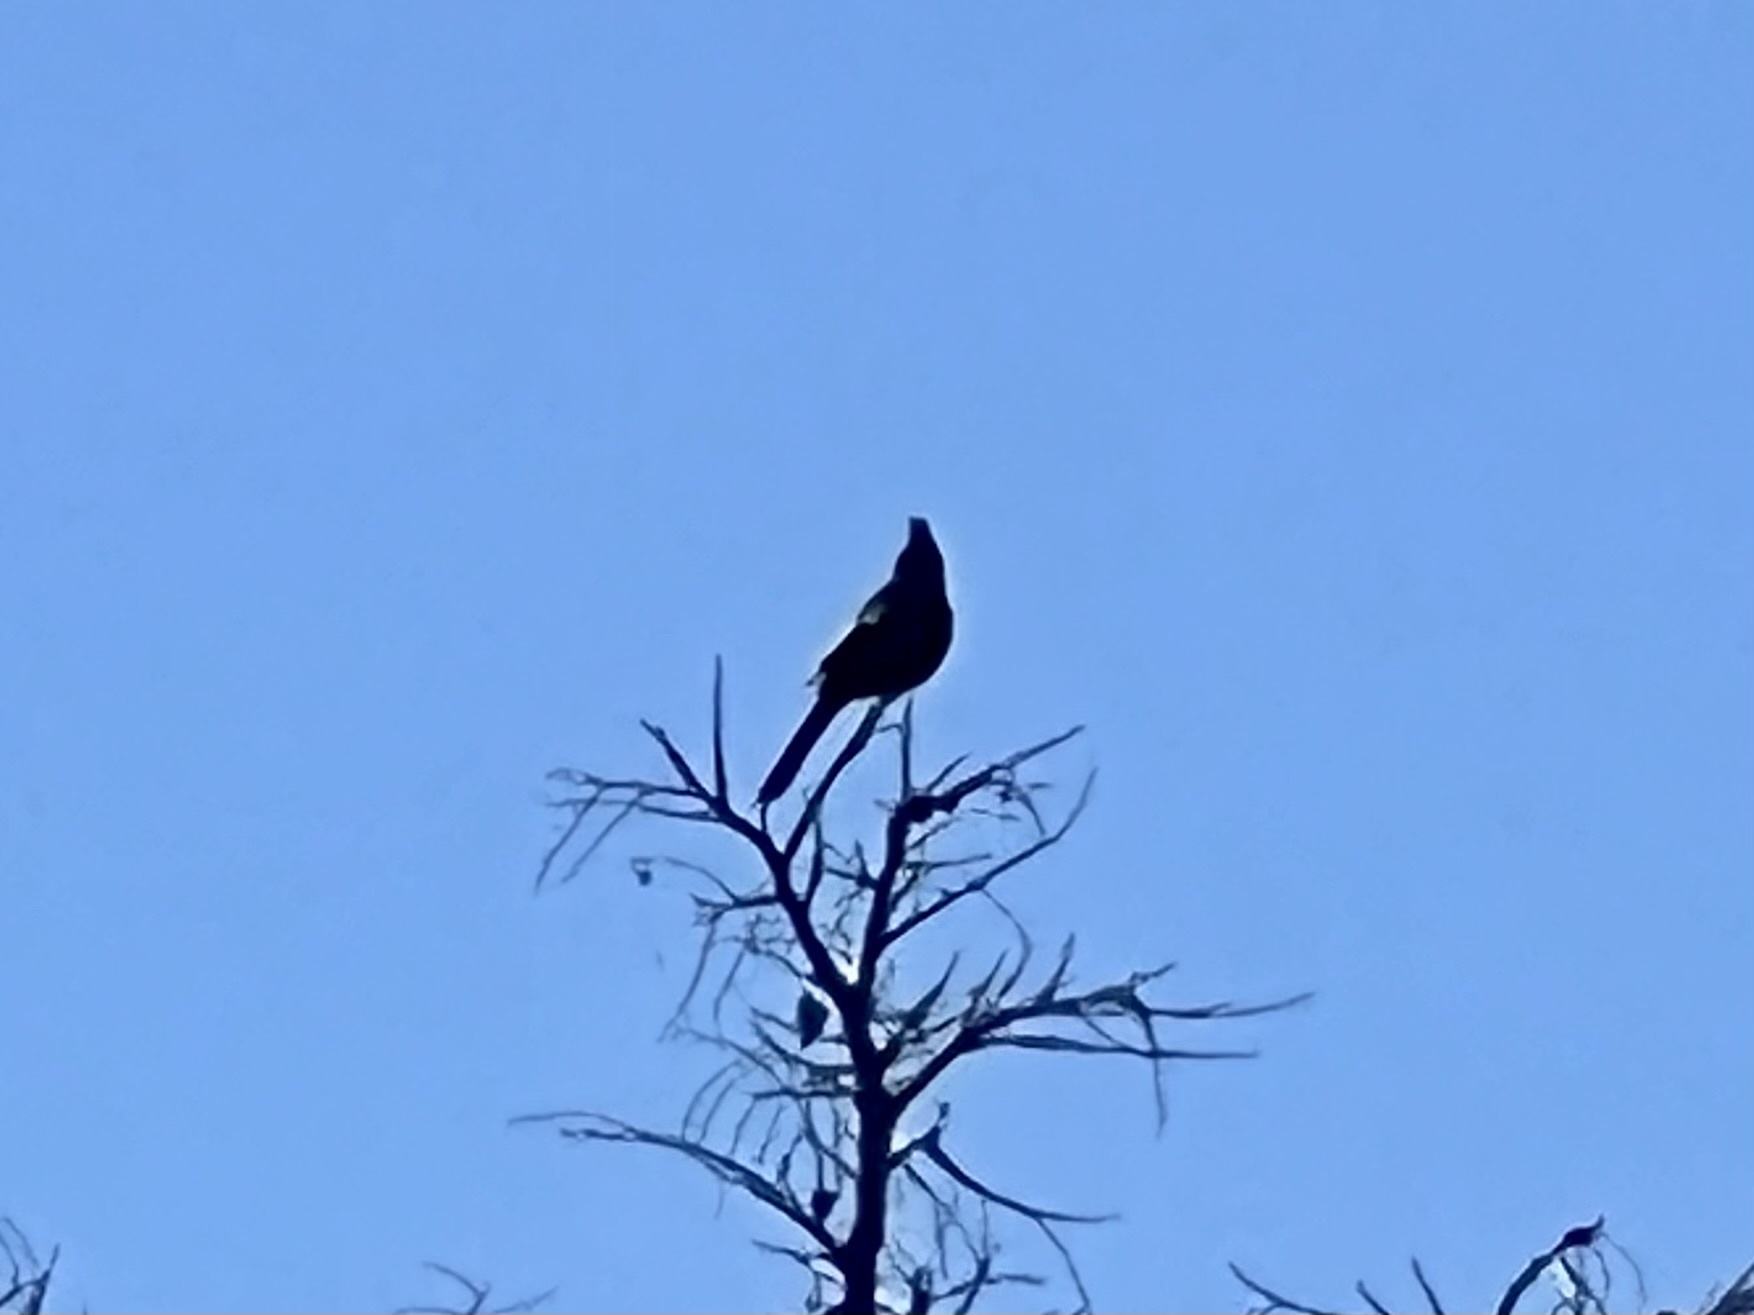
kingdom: Animalia
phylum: Chordata
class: Aves
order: Passeriformes
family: Ptilogonatidae
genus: Phainopepla
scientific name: Phainopepla nitens
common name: Phainopepla
